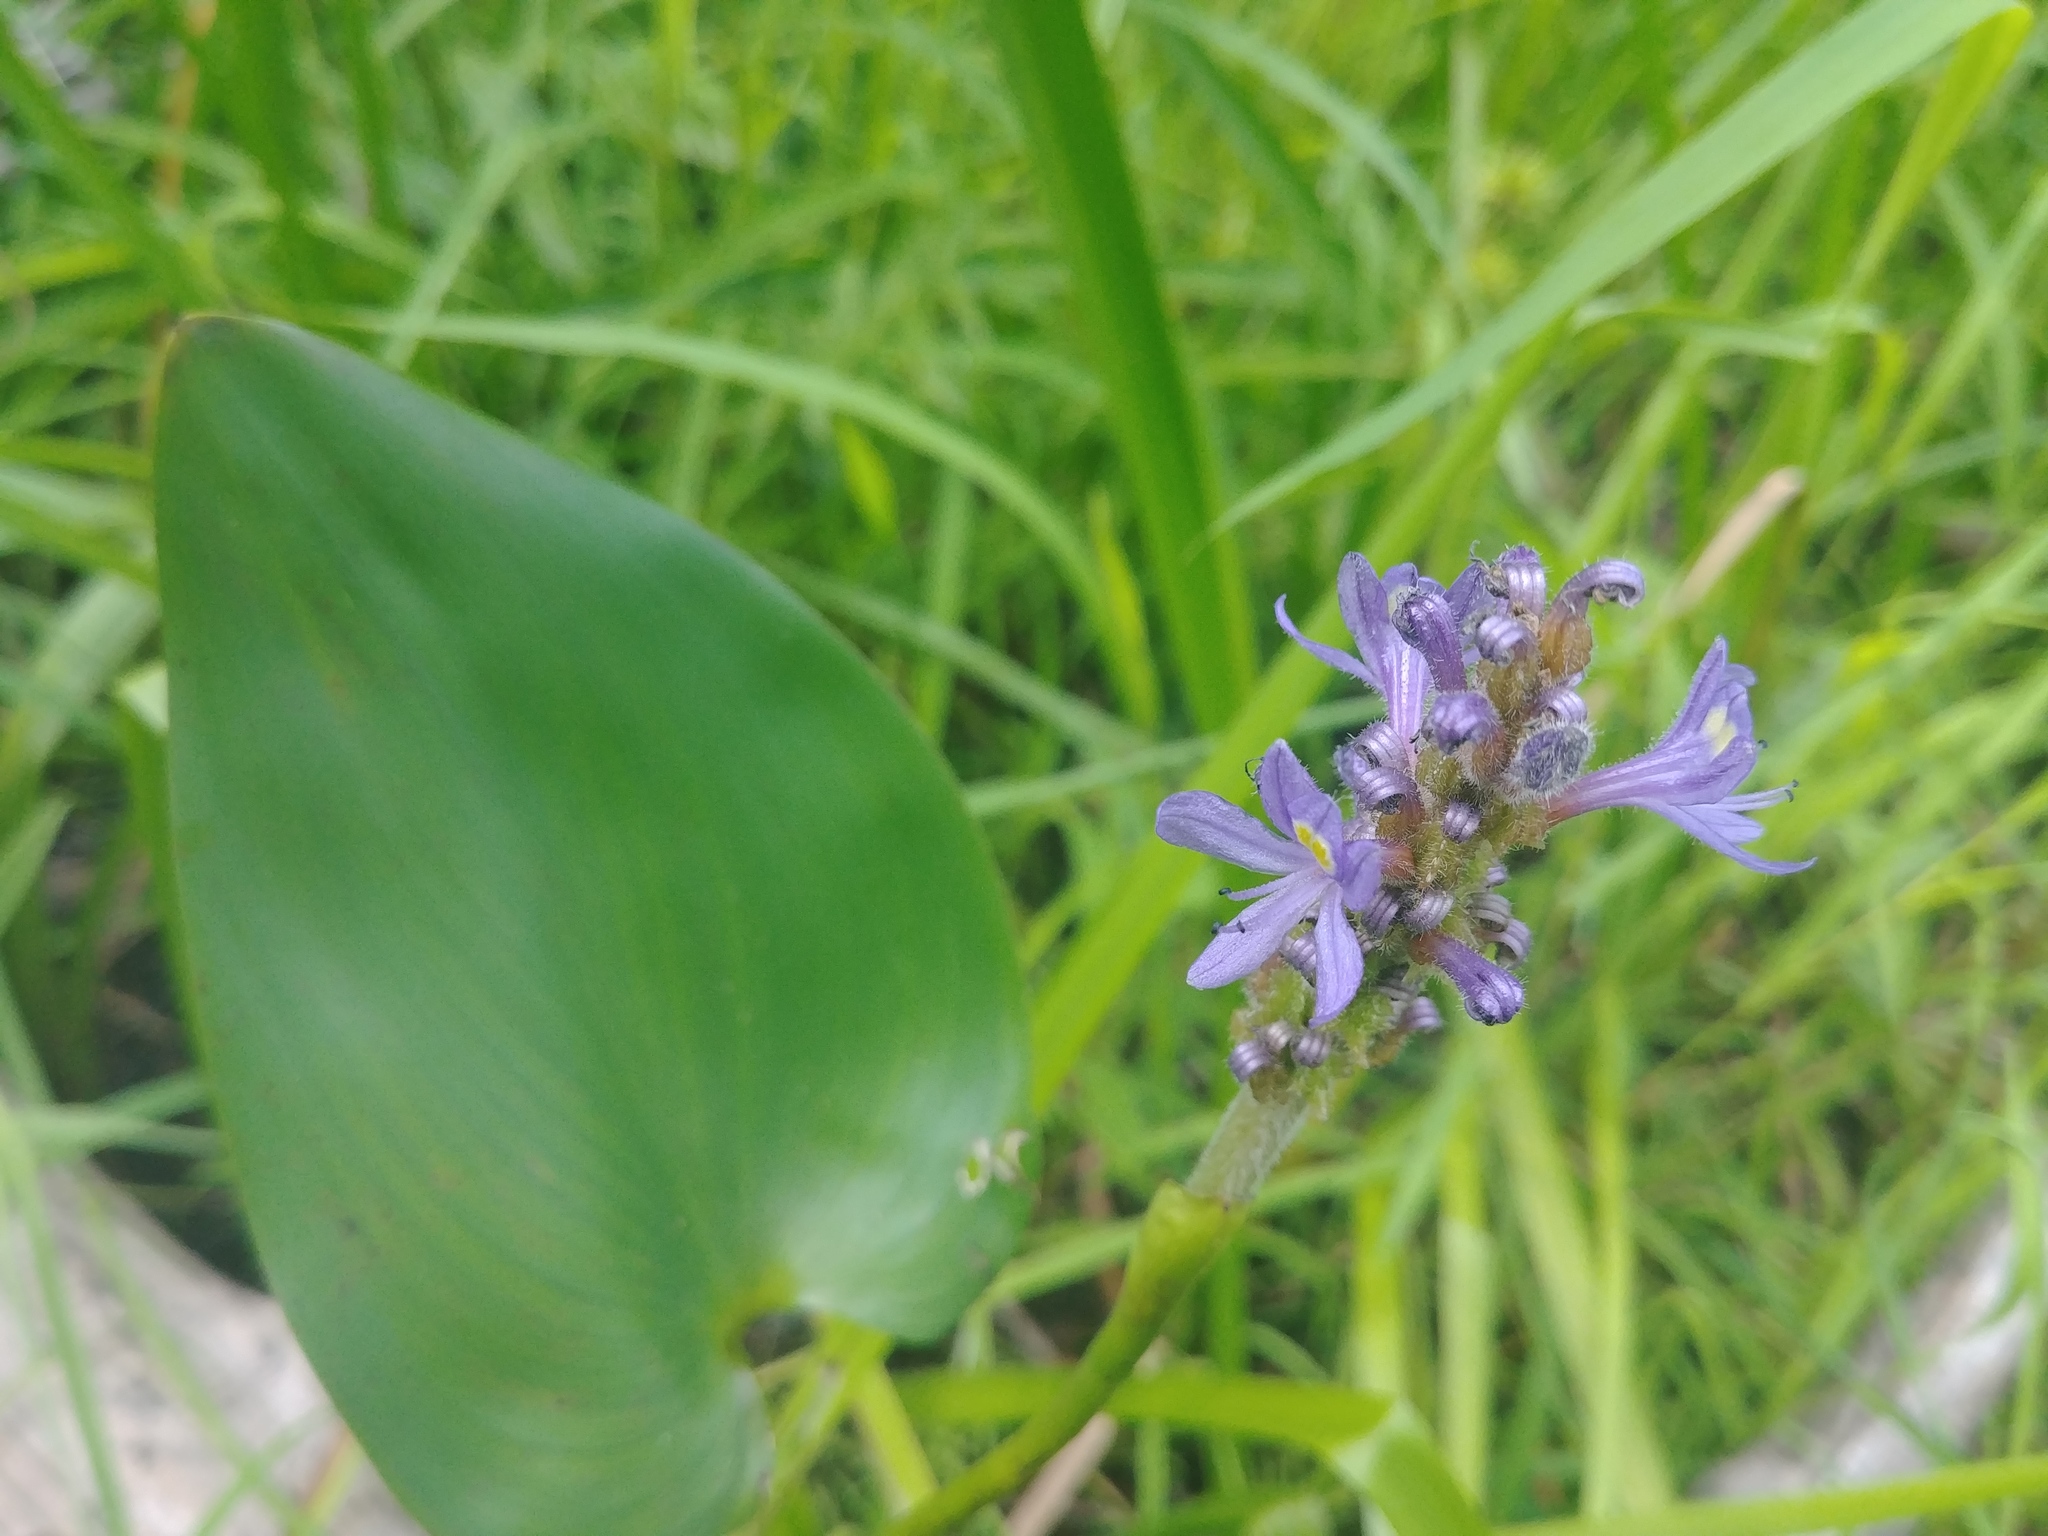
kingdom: Plantae
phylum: Tracheophyta
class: Liliopsida
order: Commelinales
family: Pontederiaceae
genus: Pontederia
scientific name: Pontederia cordata
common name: Pickerelweed
